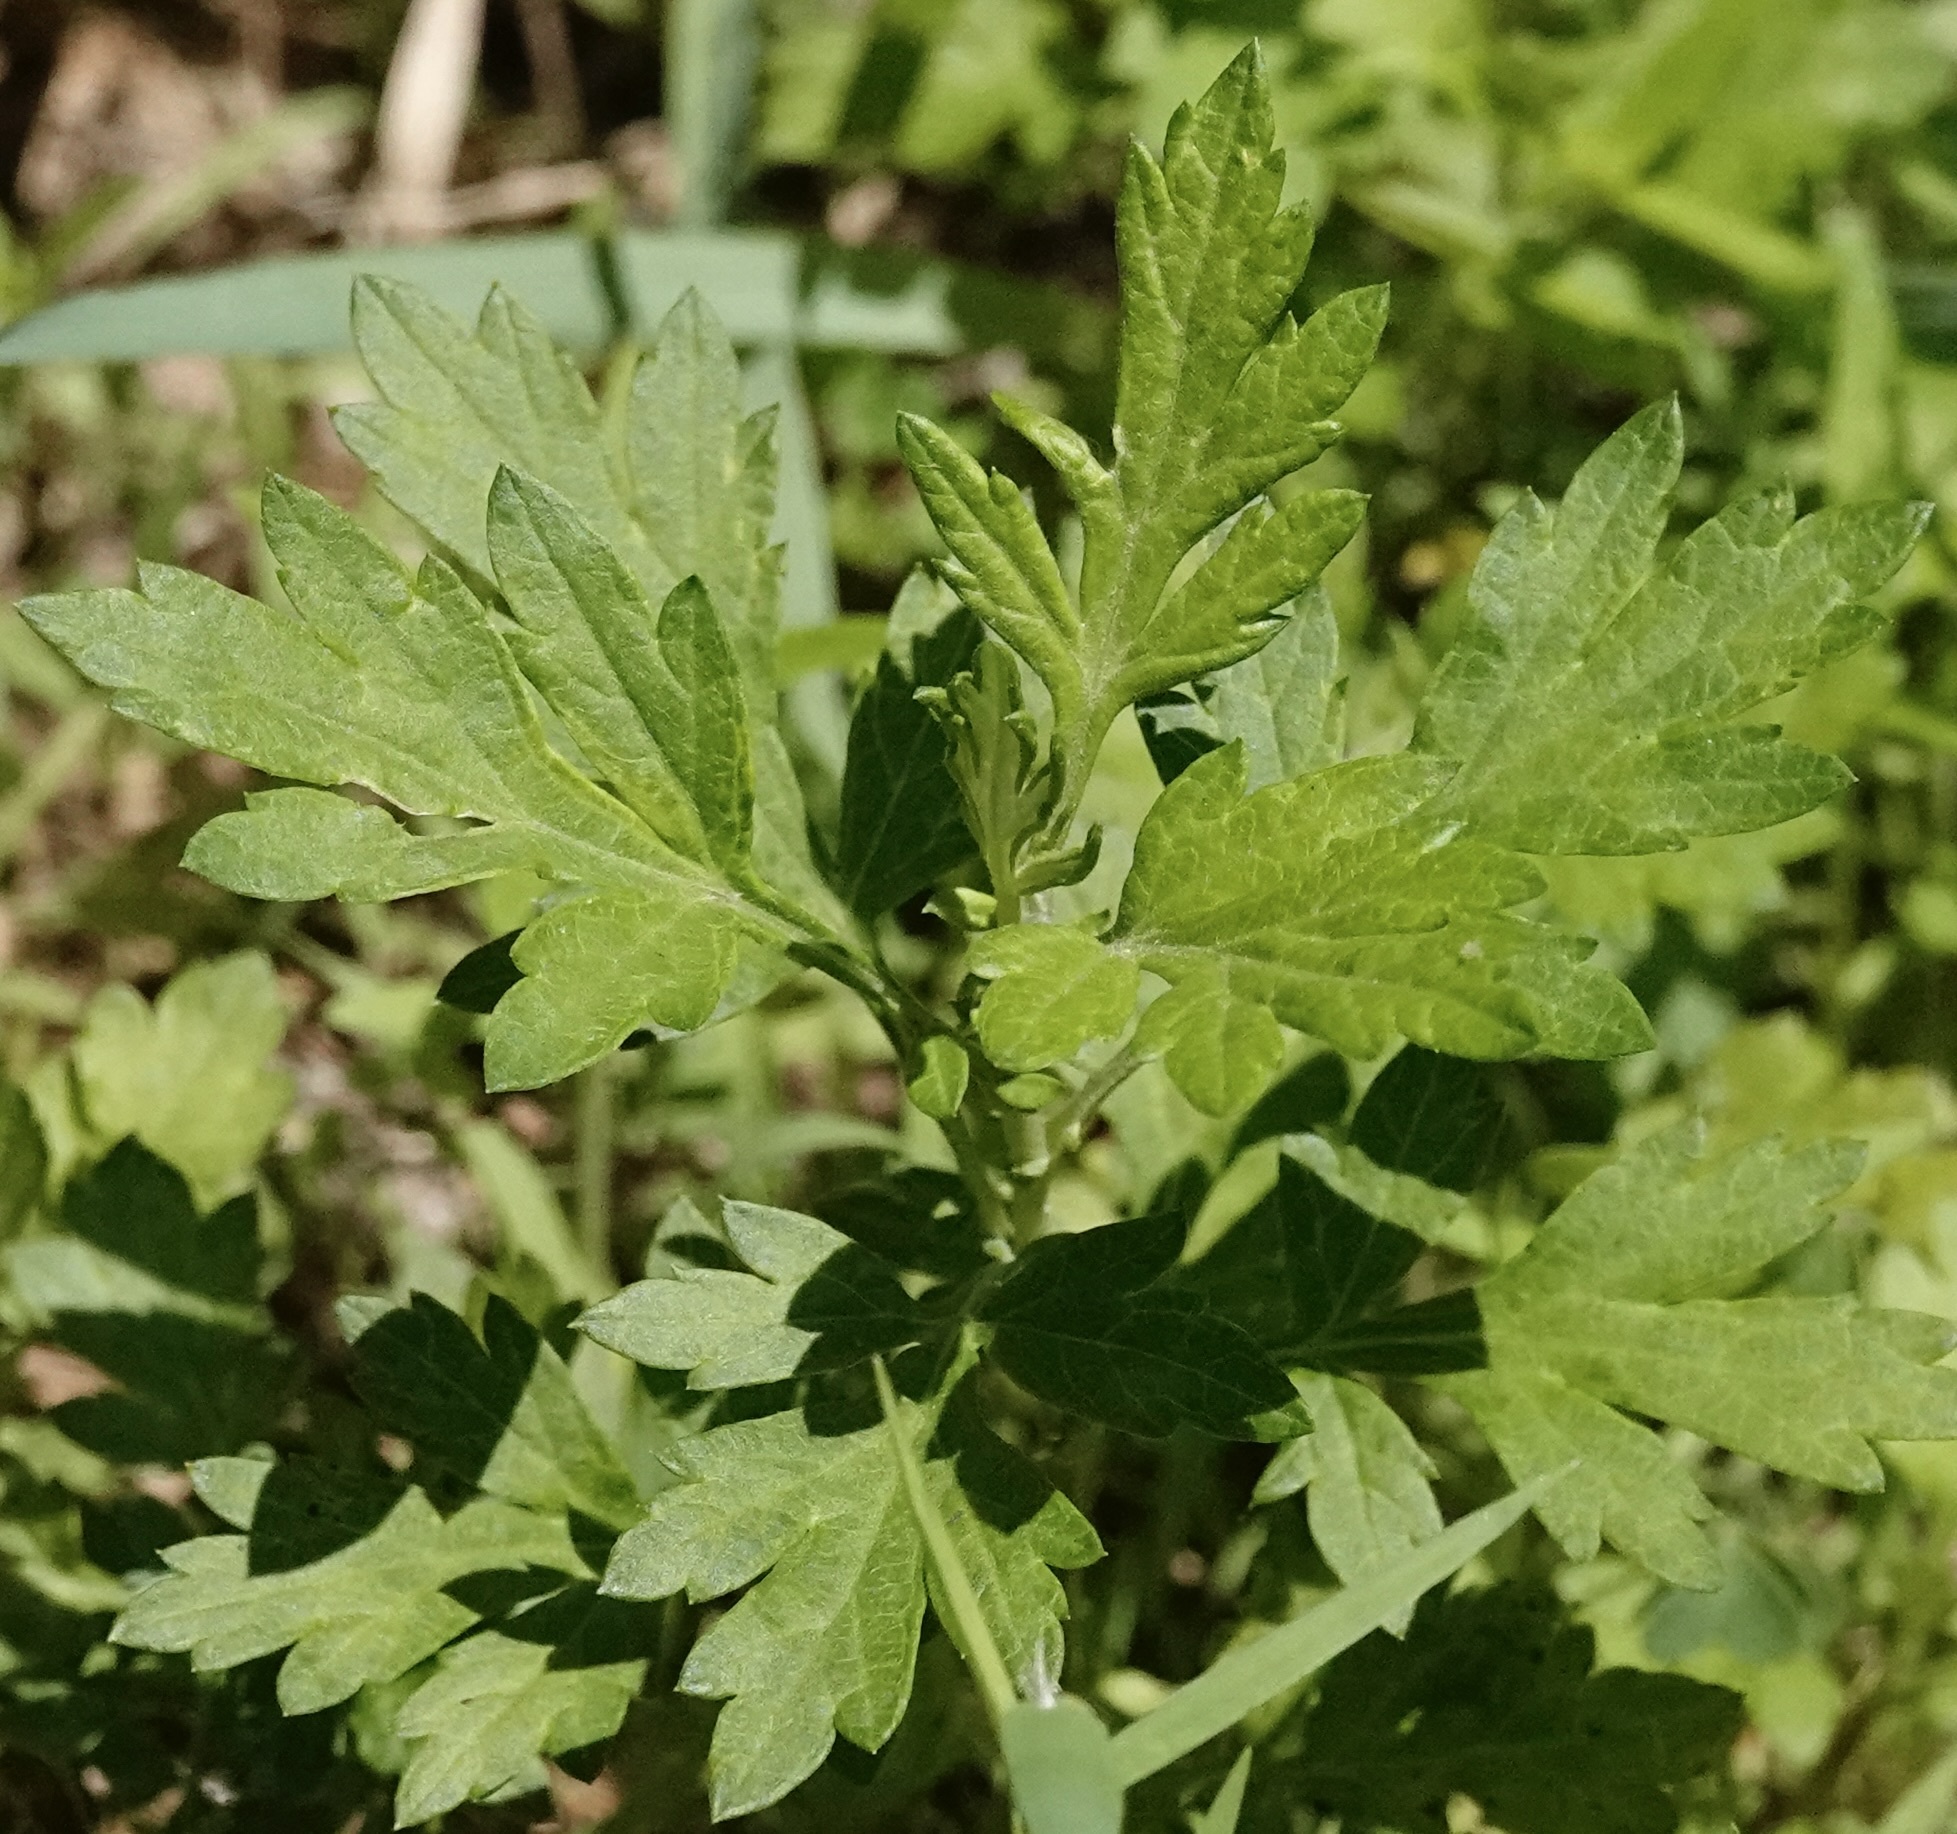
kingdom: Plantae
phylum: Tracheophyta
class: Magnoliopsida
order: Asterales
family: Asteraceae
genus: Artemisia
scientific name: Artemisia vulgaris
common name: Mugwort
